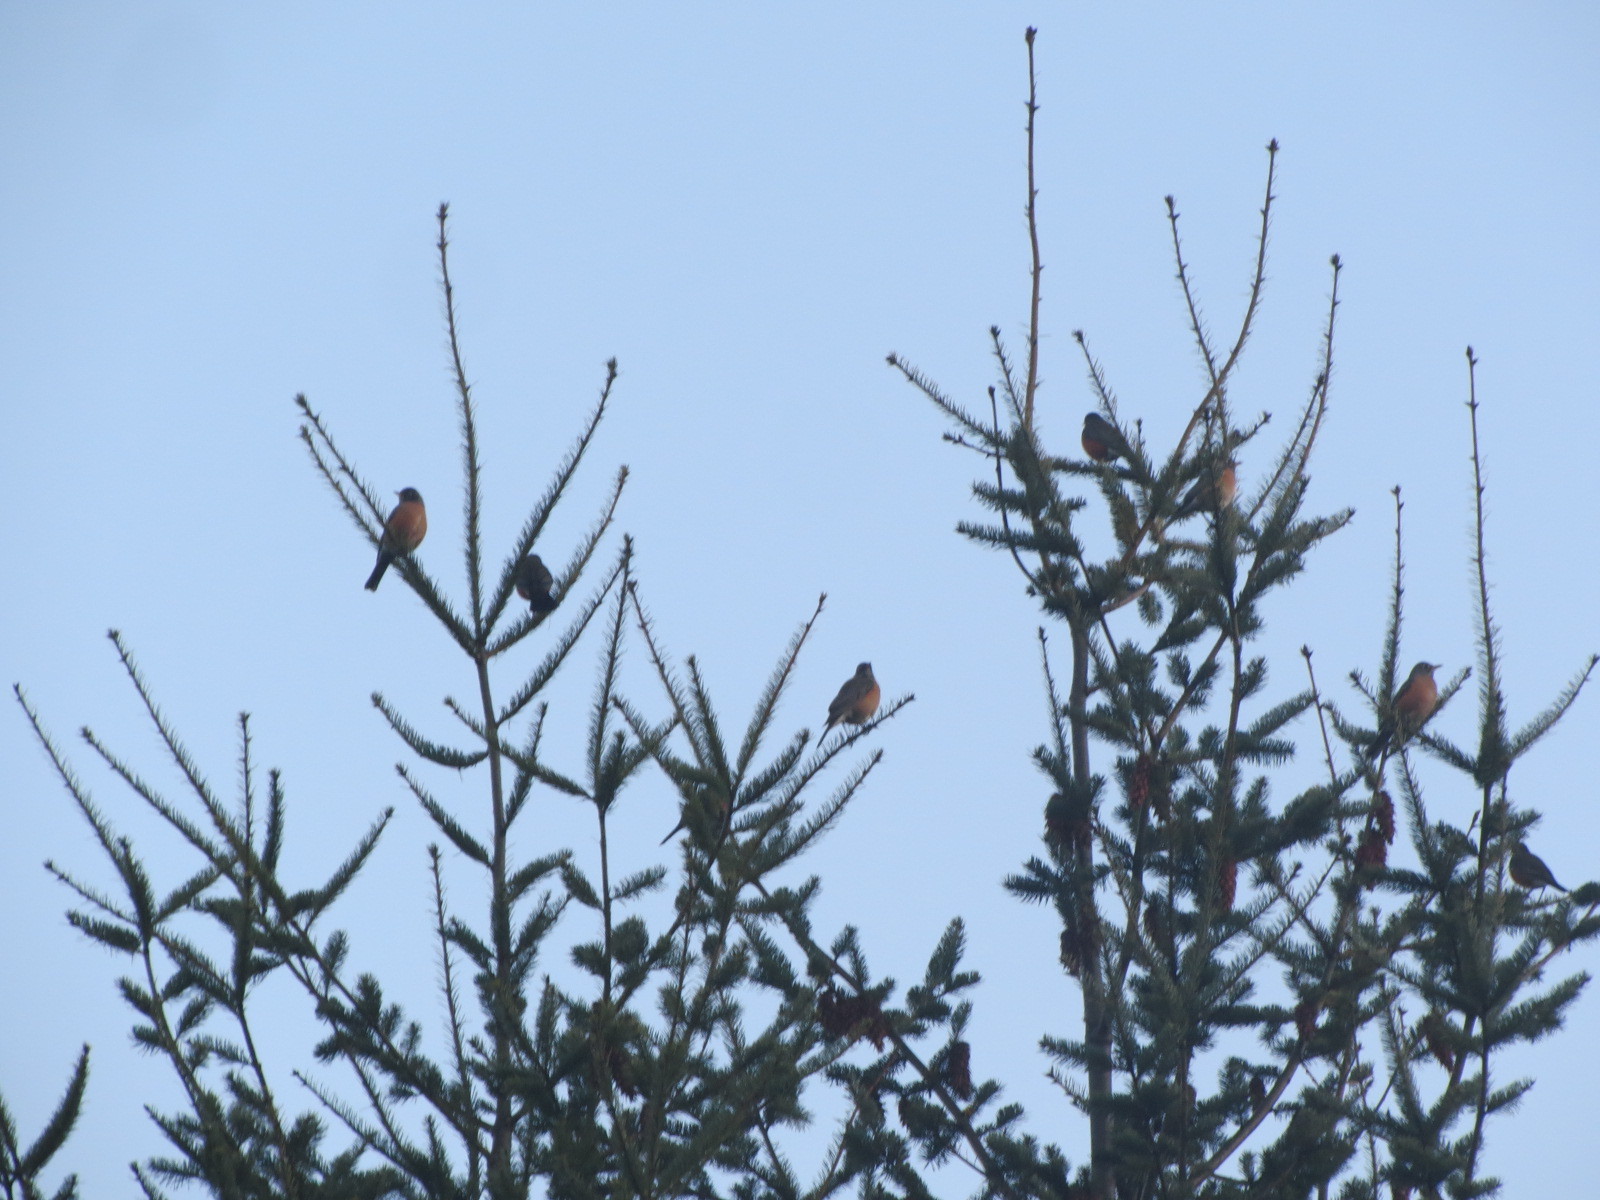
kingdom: Animalia
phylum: Chordata
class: Aves
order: Passeriformes
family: Turdidae
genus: Turdus
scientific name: Turdus migratorius
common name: American robin
